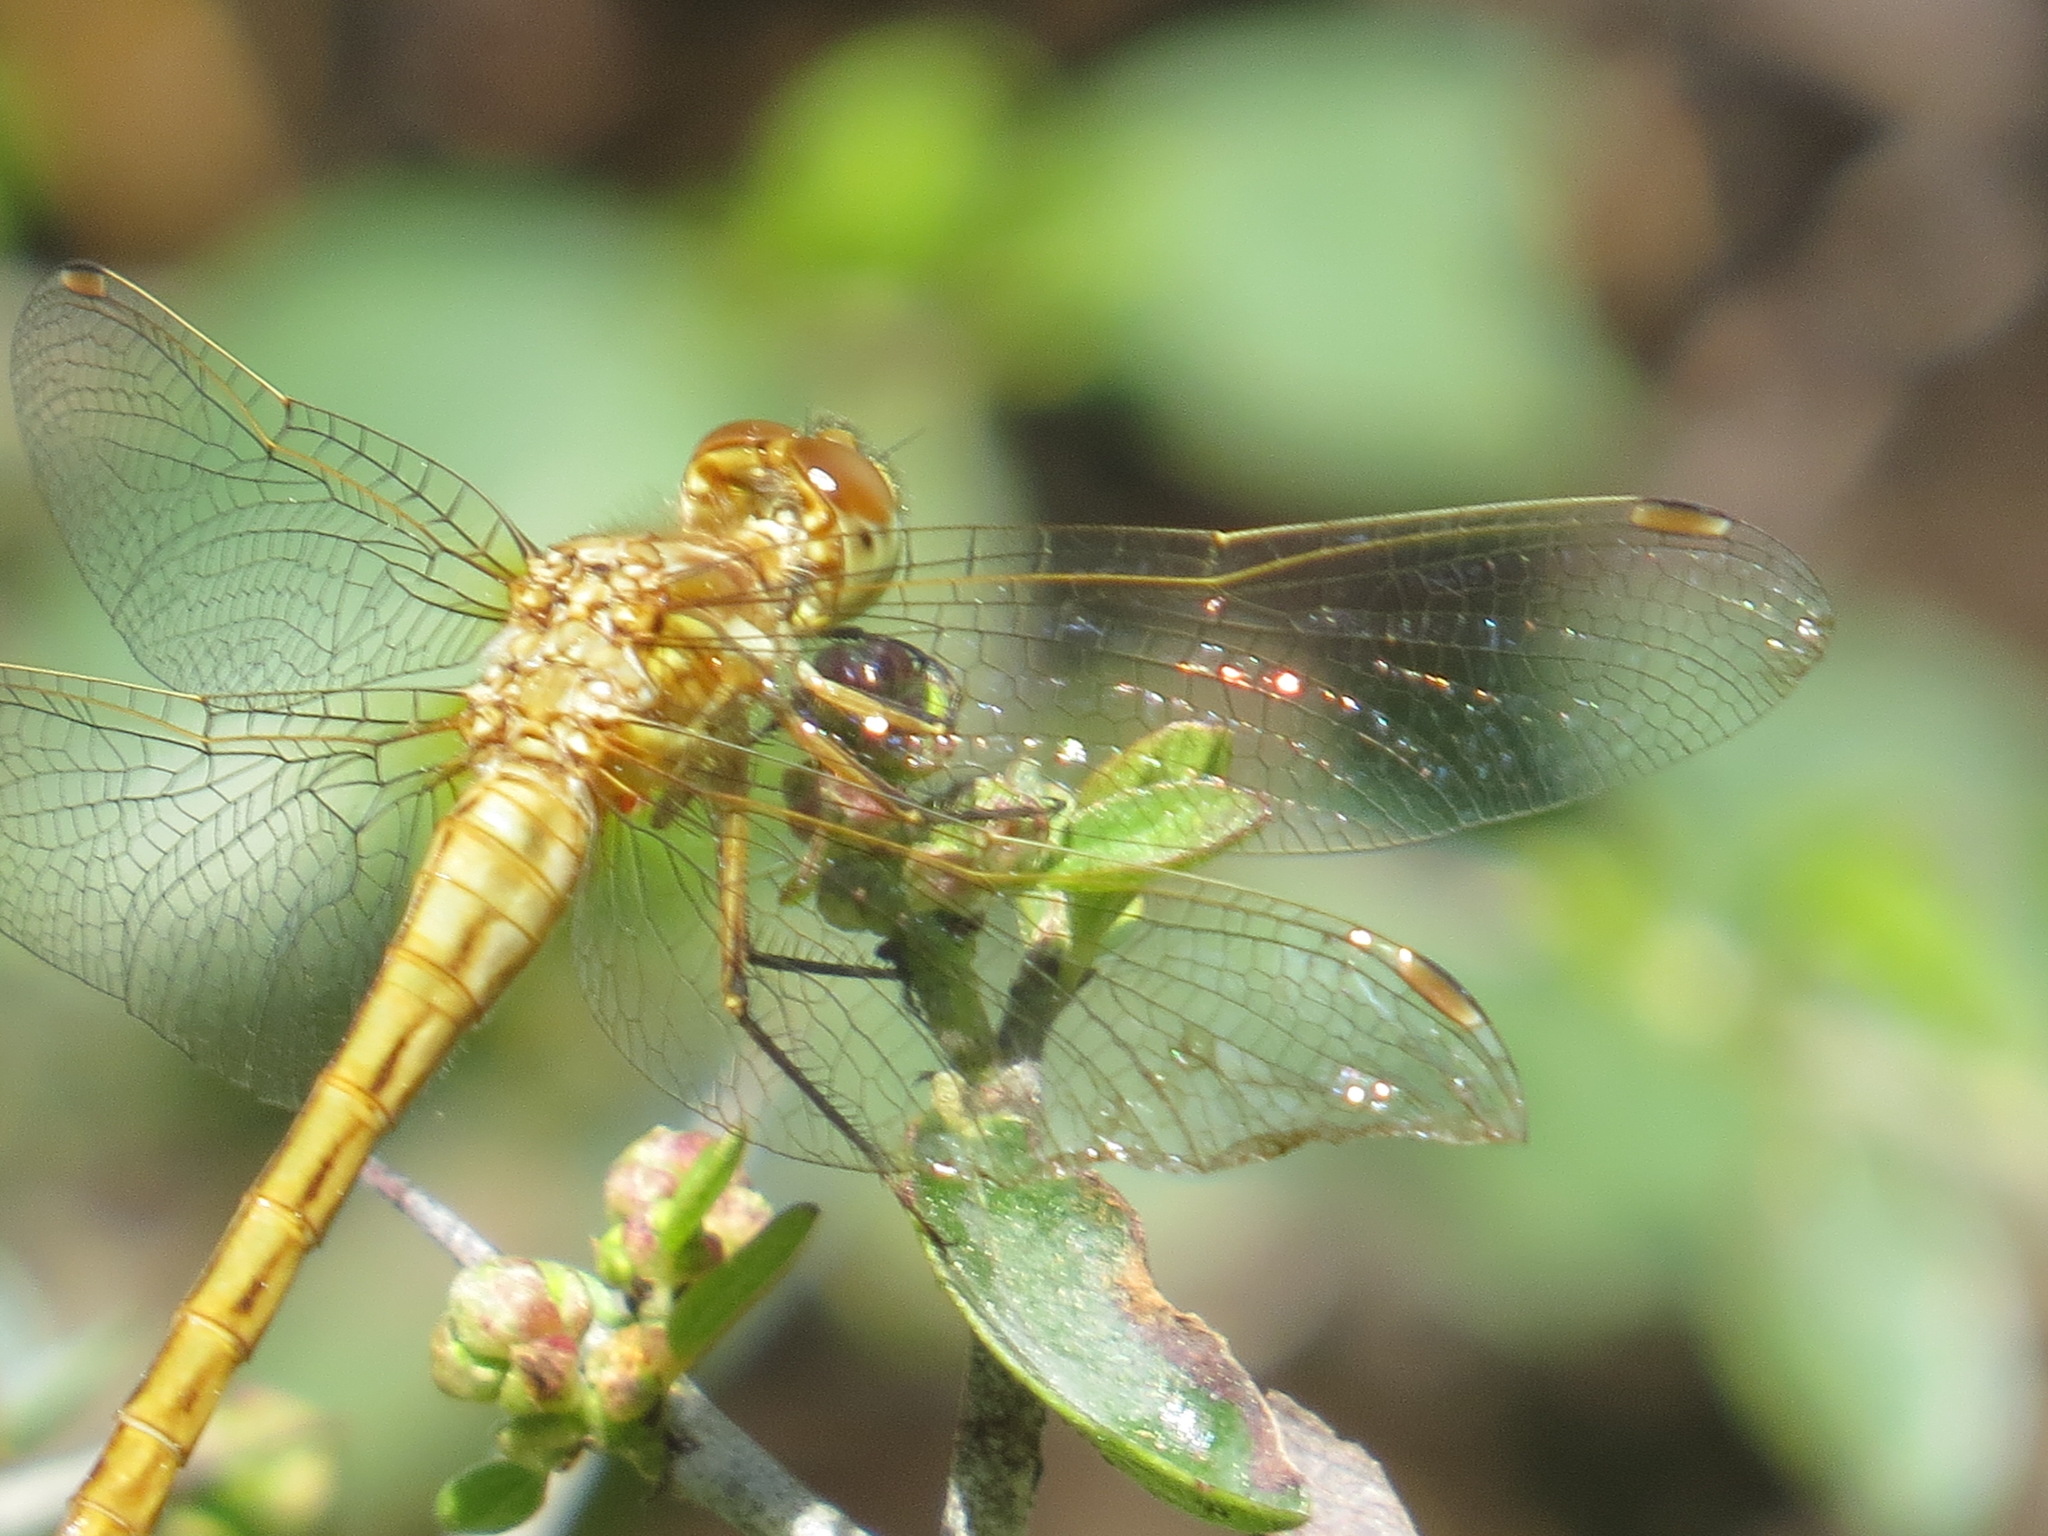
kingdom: Animalia
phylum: Arthropoda
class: Insecta
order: Odonata
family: Libellulidae
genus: Sympetrum
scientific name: Sympetrum pallipes
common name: Striped meadowhawk
